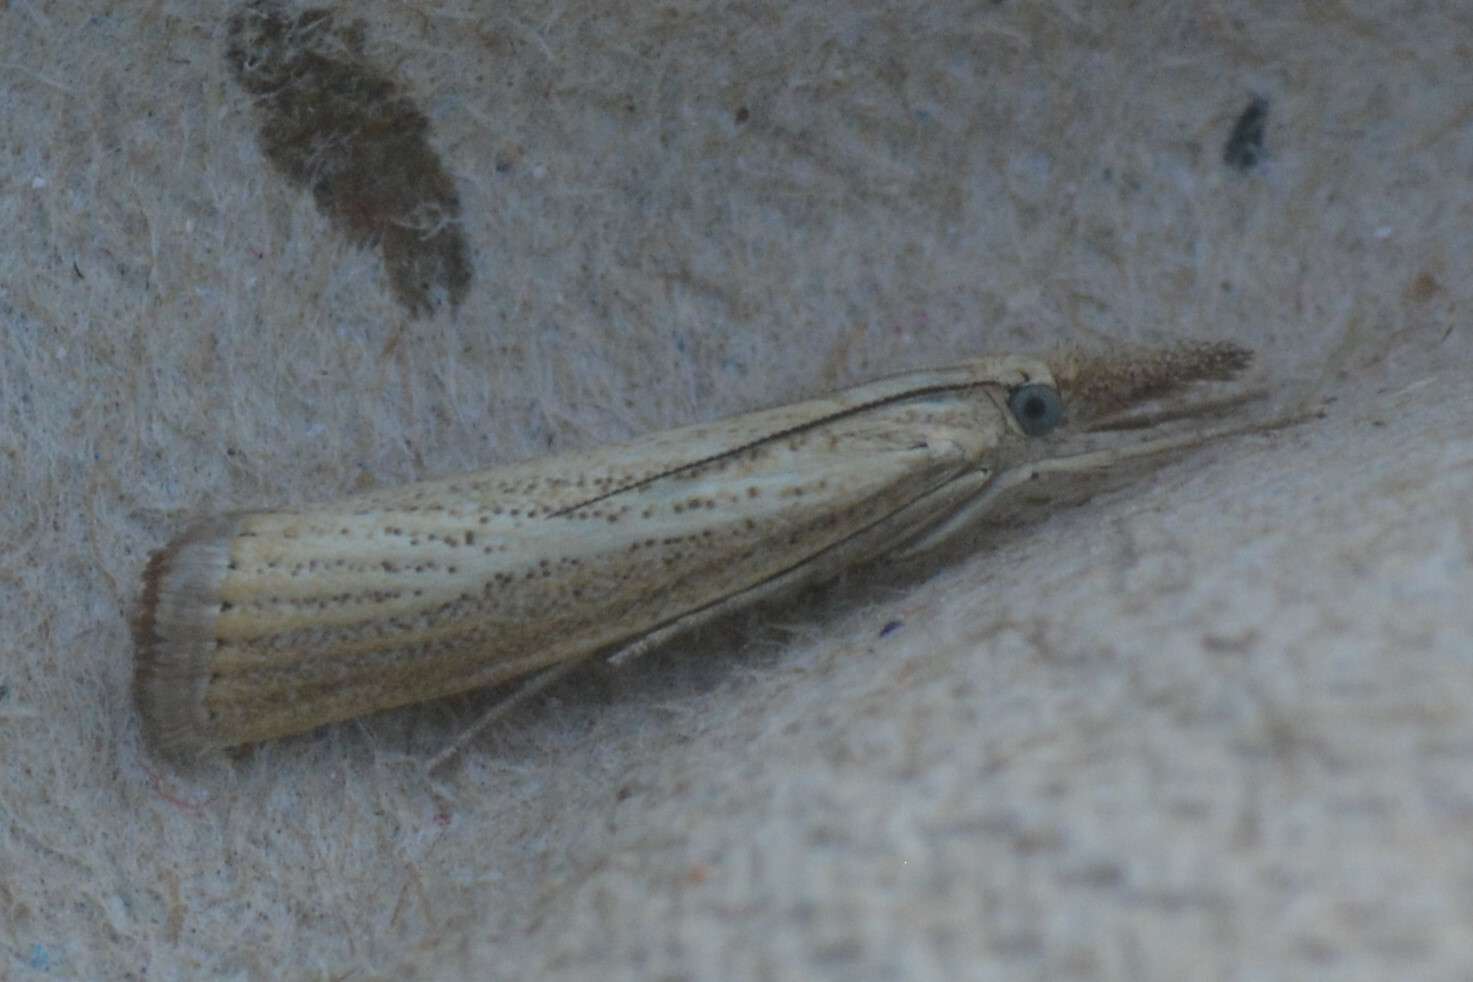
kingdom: Animalia
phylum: Arthropoda
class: Insecta
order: Lepidoptera
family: Crambidae
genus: Agriphila
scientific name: Agriphila straminella
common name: Straw grass-veneer
